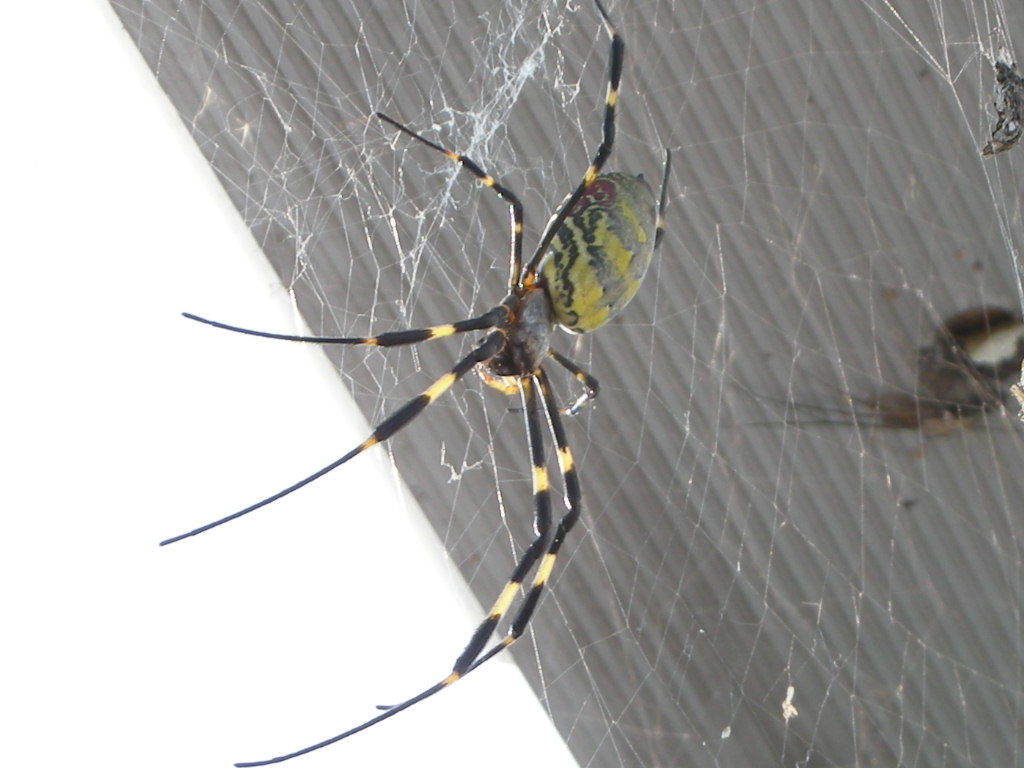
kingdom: Animalia
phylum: Arthropoda
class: Arachnida
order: Araneae
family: Araneidae
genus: Trichonephila
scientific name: Trichonephila clavata
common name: Jorō spider
